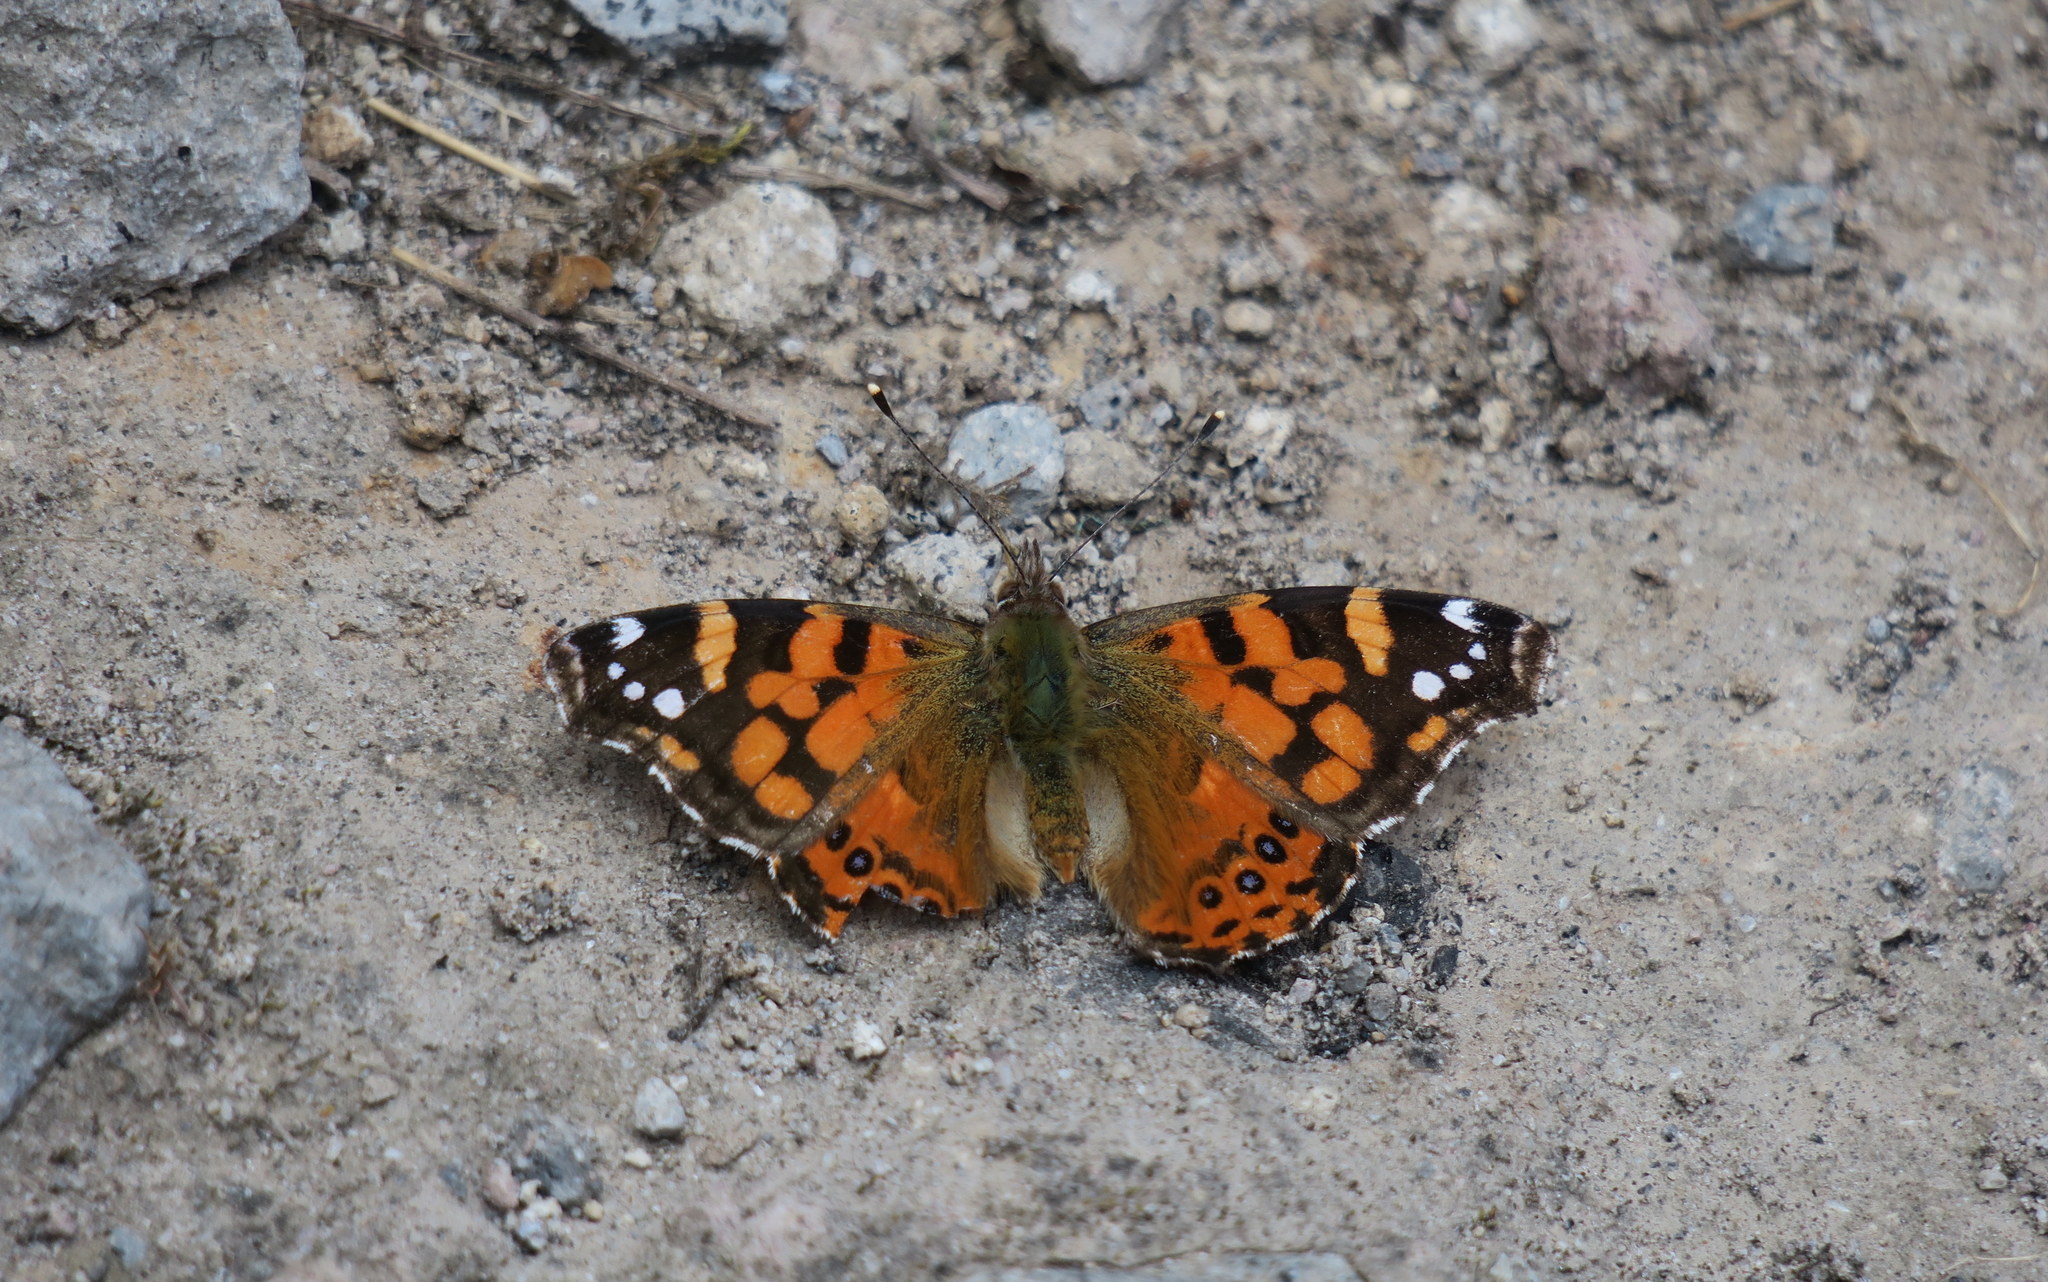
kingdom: Animalia
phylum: Arthropoda
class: Insecta
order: Lepidoptera
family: Nymphalidae
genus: Vanessa
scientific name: Vanessa carye
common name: Subtropical lady
